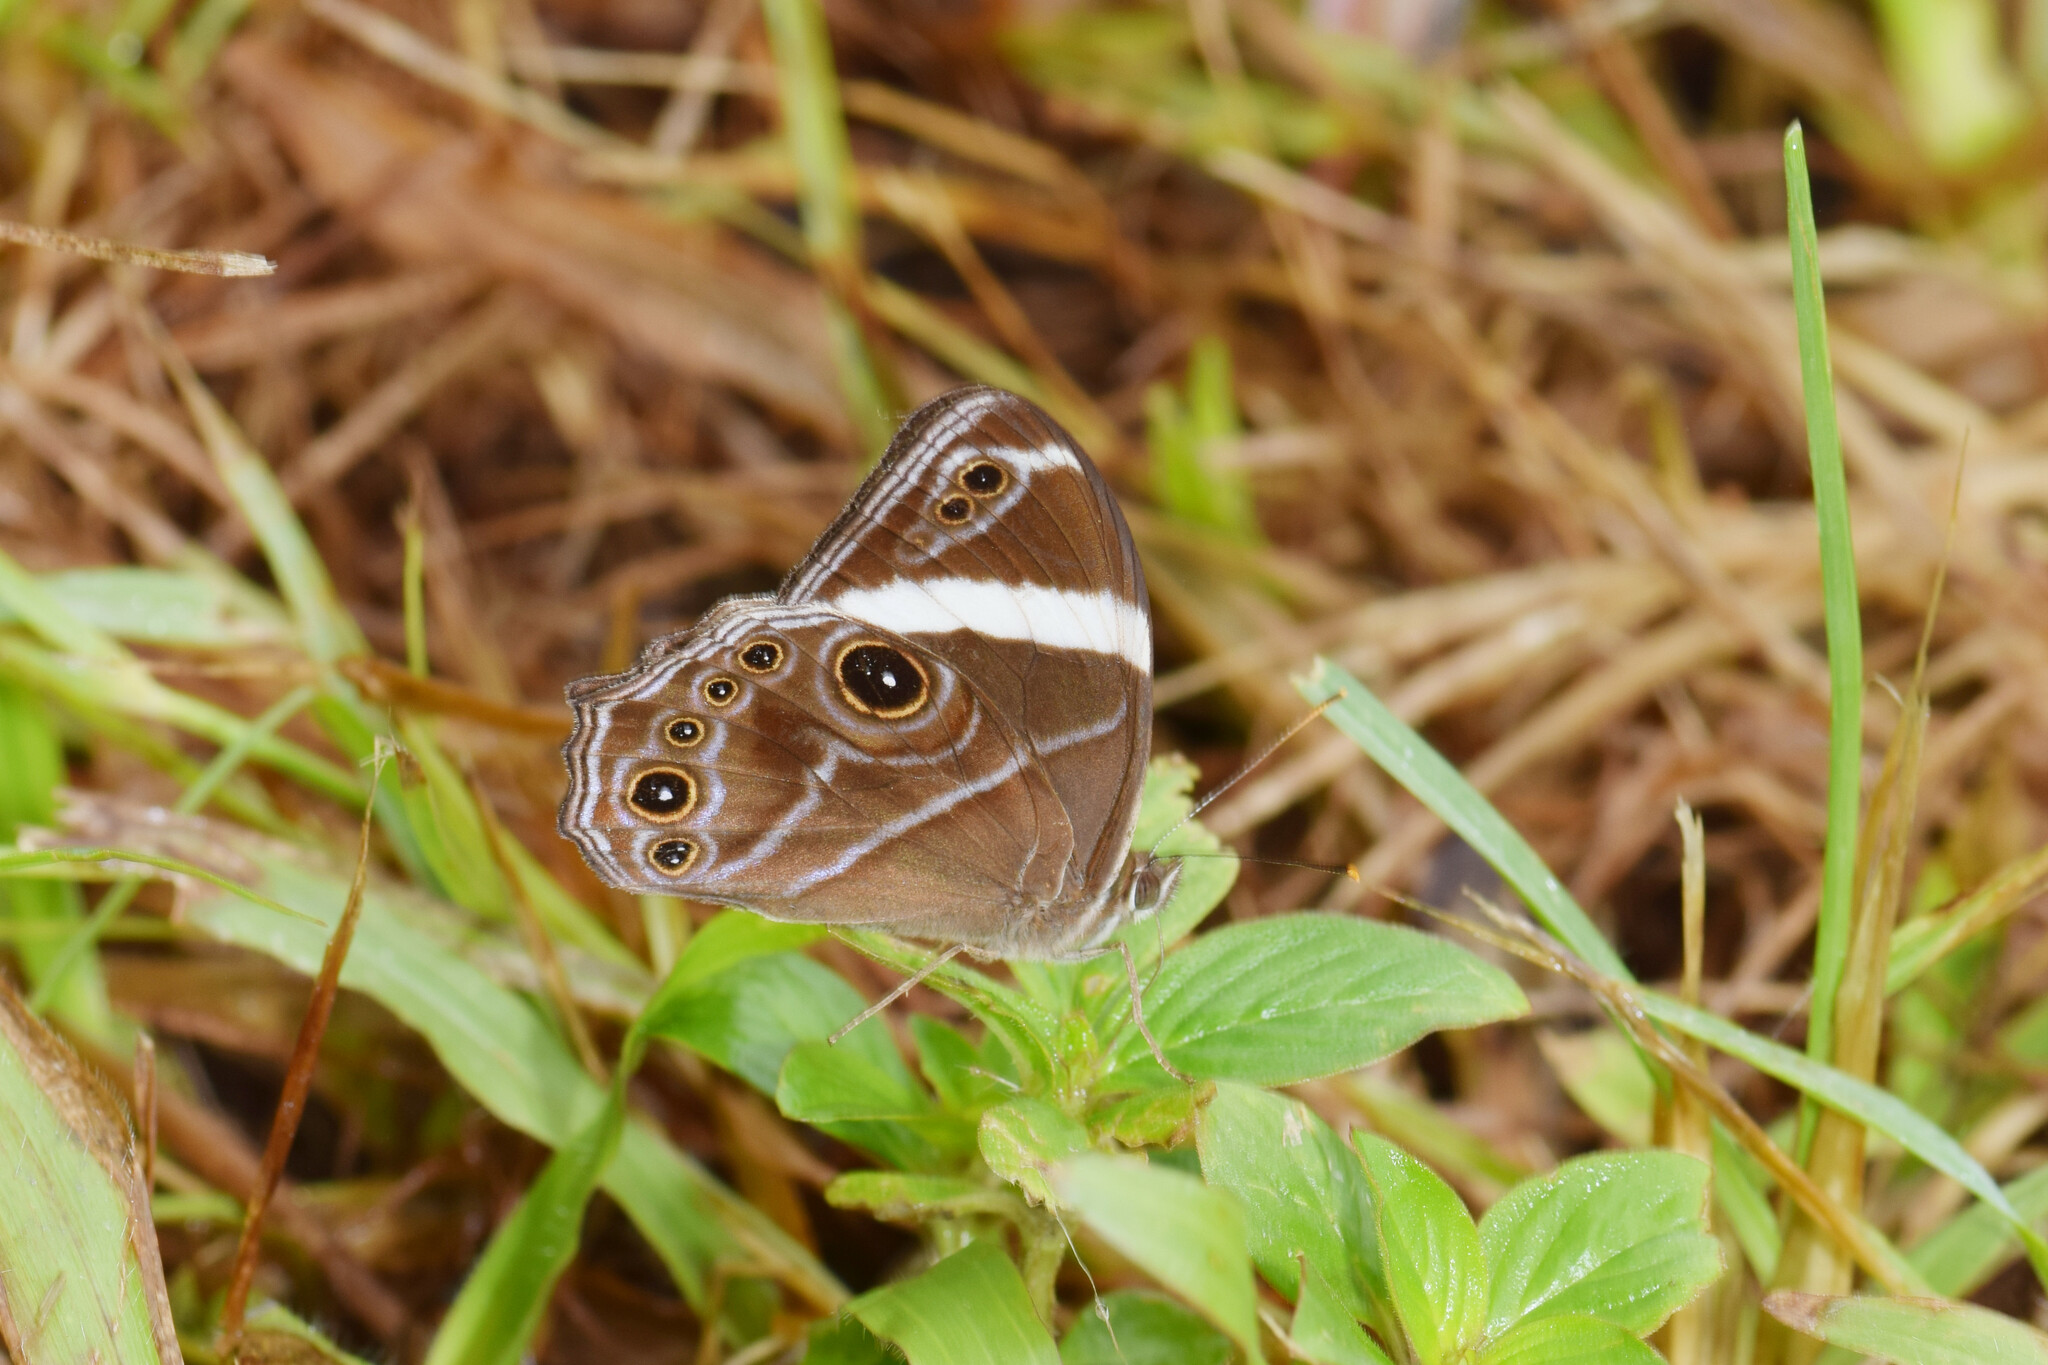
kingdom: Animalia
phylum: Arthropoda
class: Insecta
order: Lepidoptera
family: Nymphalidae
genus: Lethe
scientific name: Lethe confusa
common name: Banded treebrown
